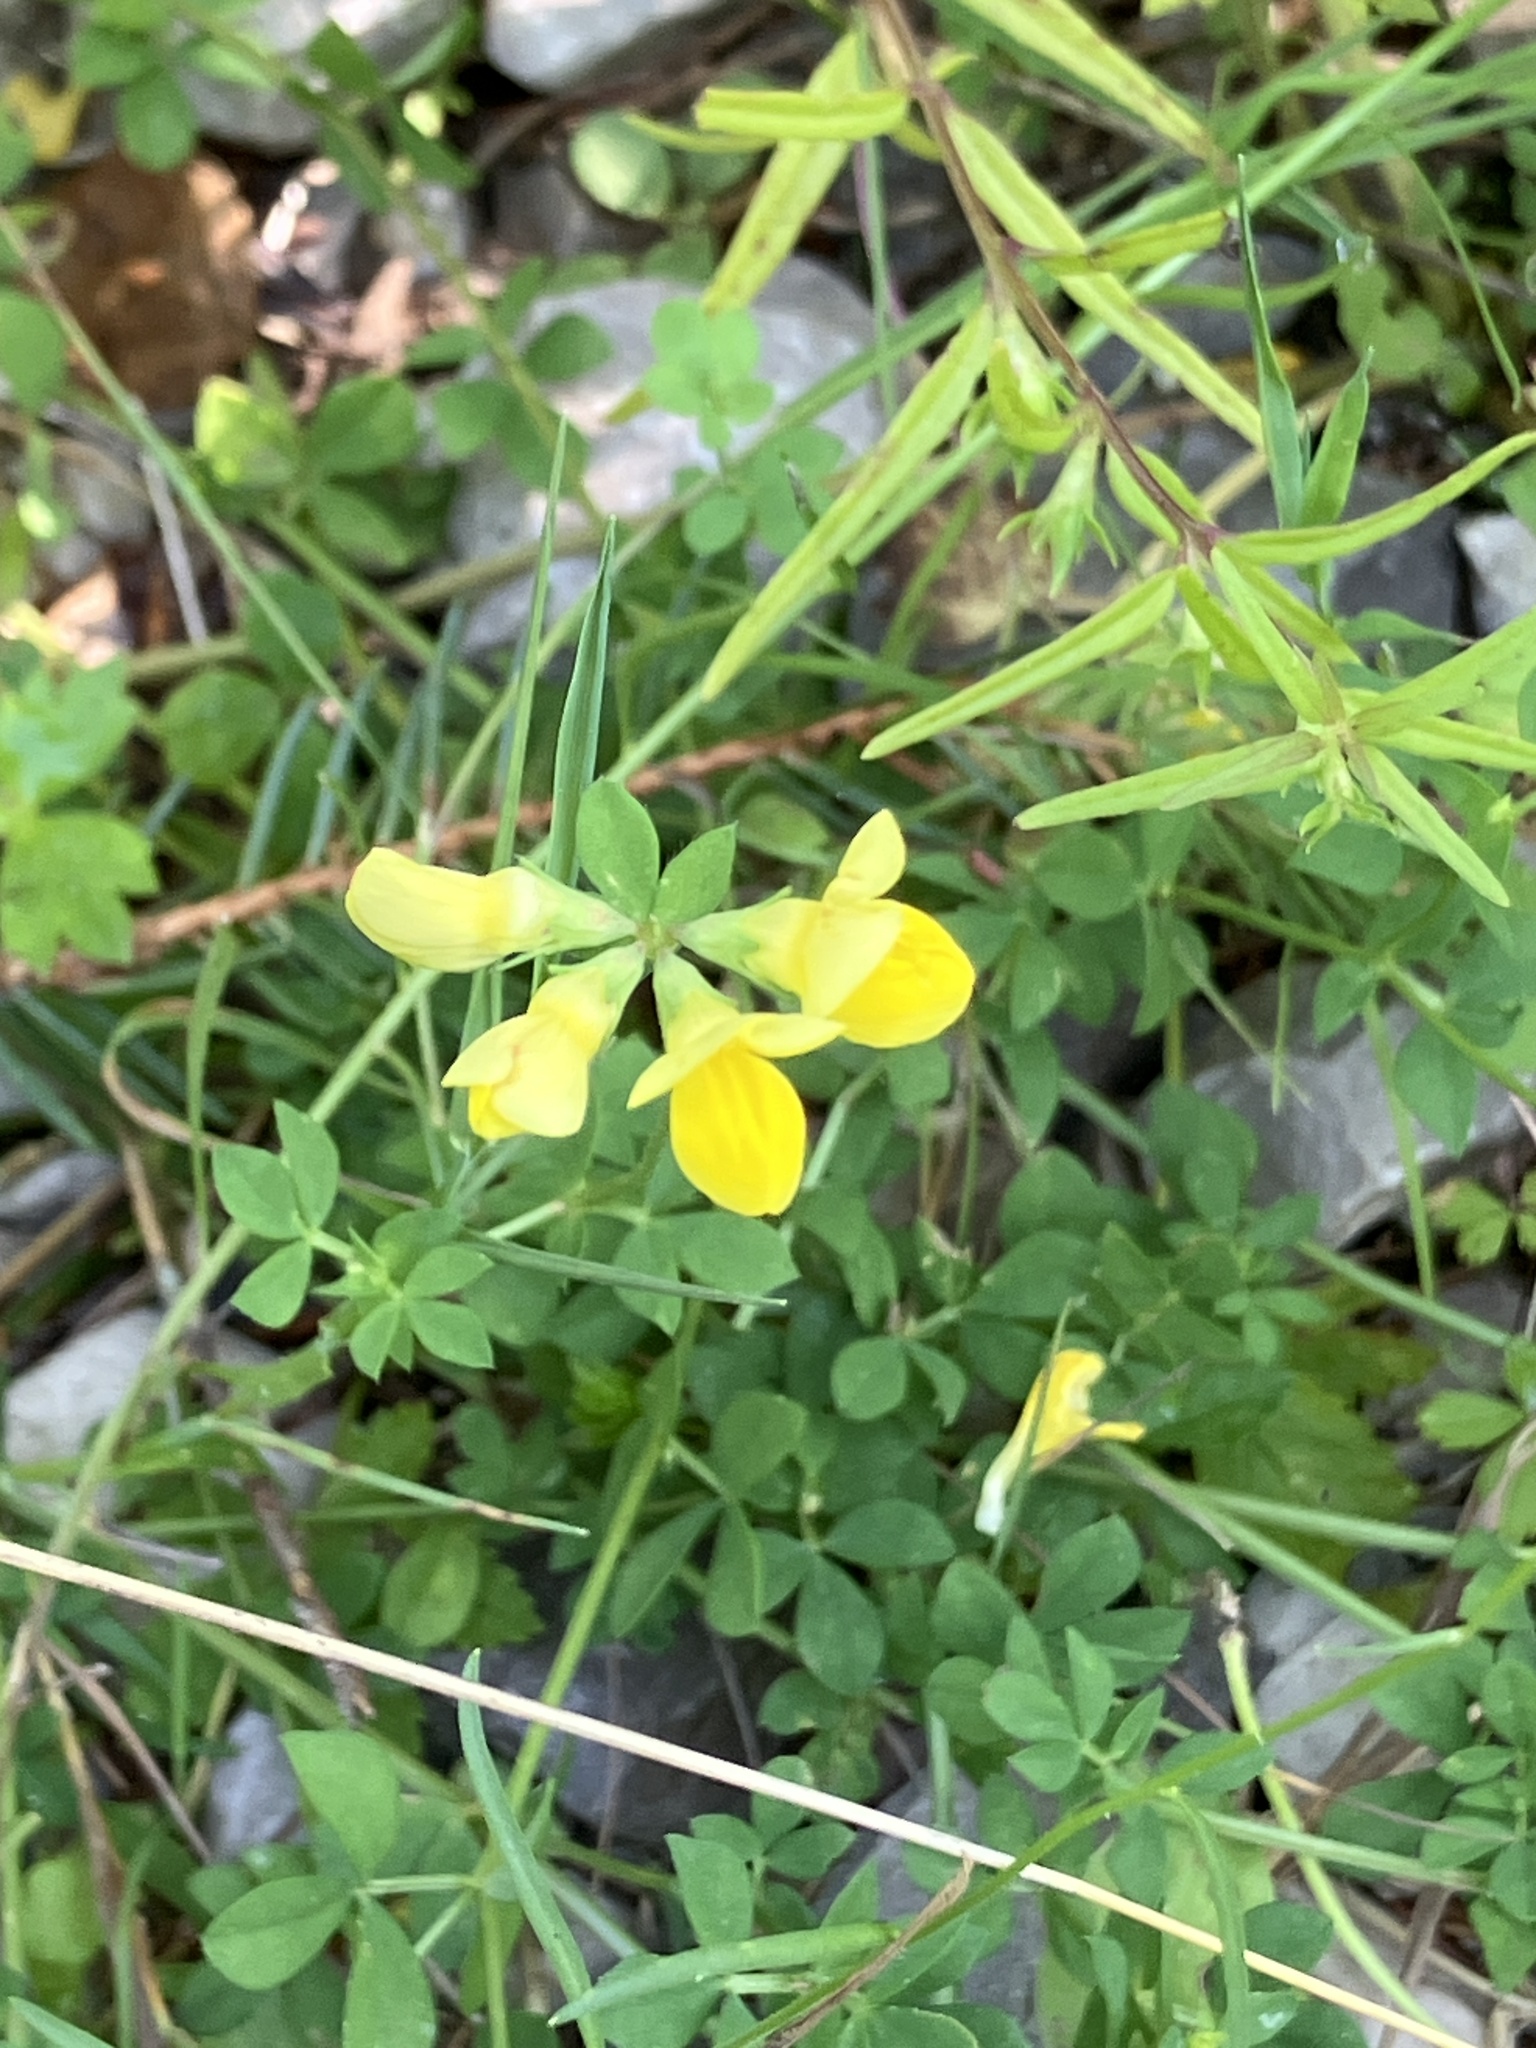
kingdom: Plantae
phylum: Tracheophyta
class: Magnoliopsida
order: Fabales
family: Fabaceae
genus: Lotus
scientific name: Lotus corniculatus
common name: Common bird's-foot-trefoil
